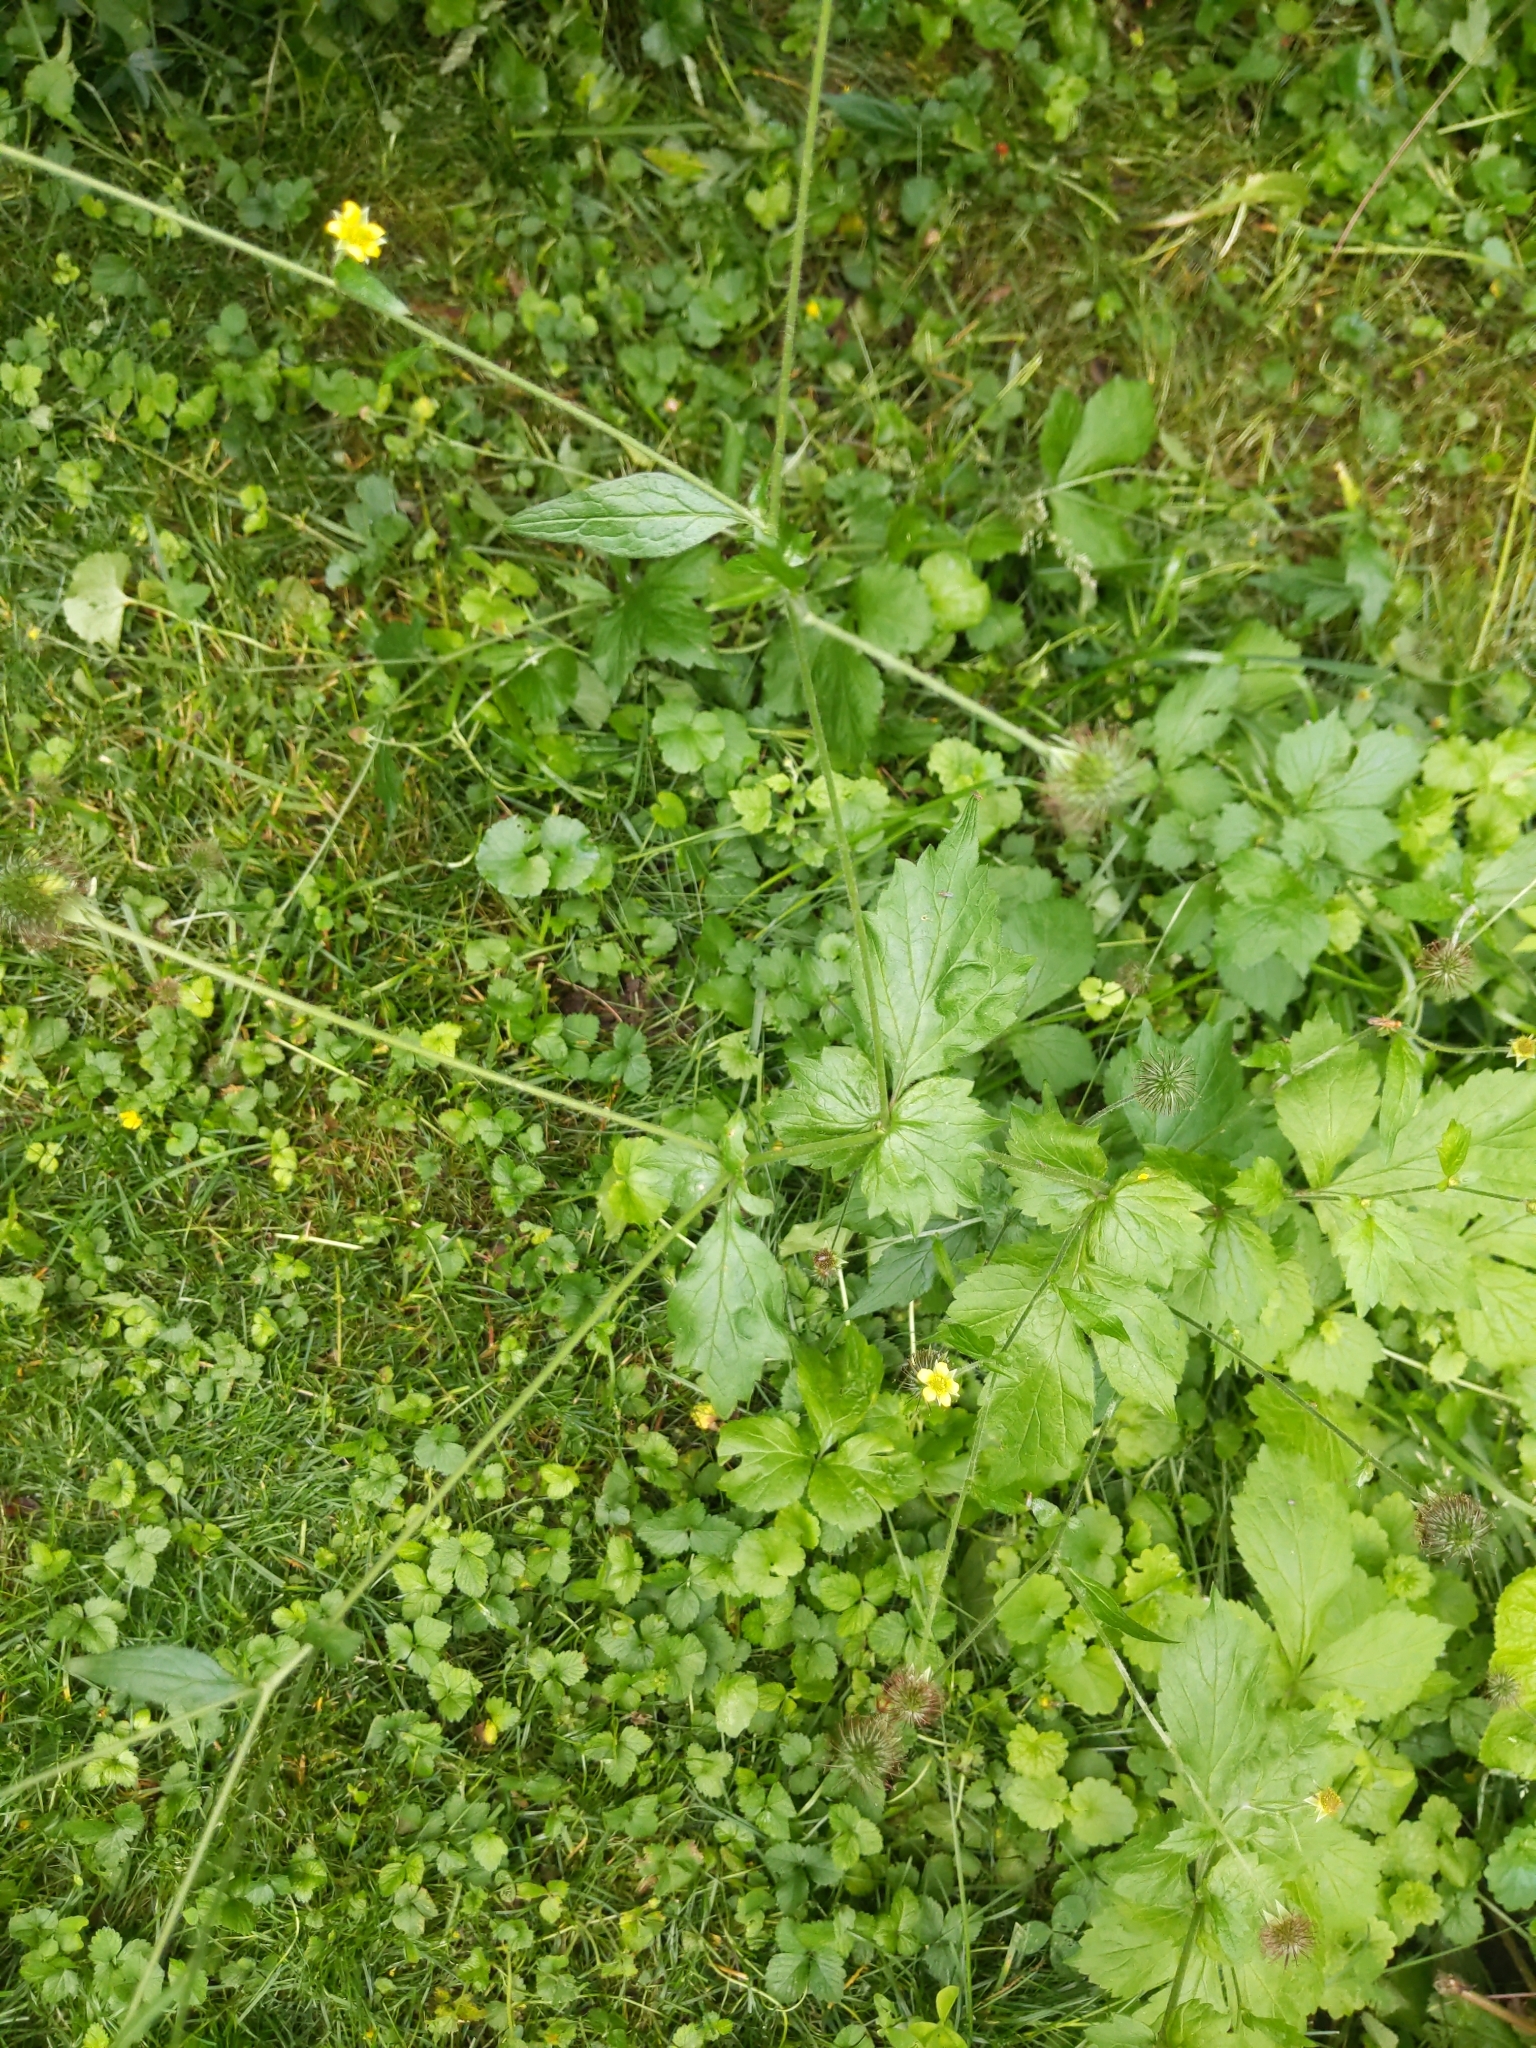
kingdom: Plantae
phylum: Tracheophyta
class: Magnoliopsida
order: Rosales
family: Rosaceae
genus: Geum
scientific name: Geum urbanum
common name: Wood avens
